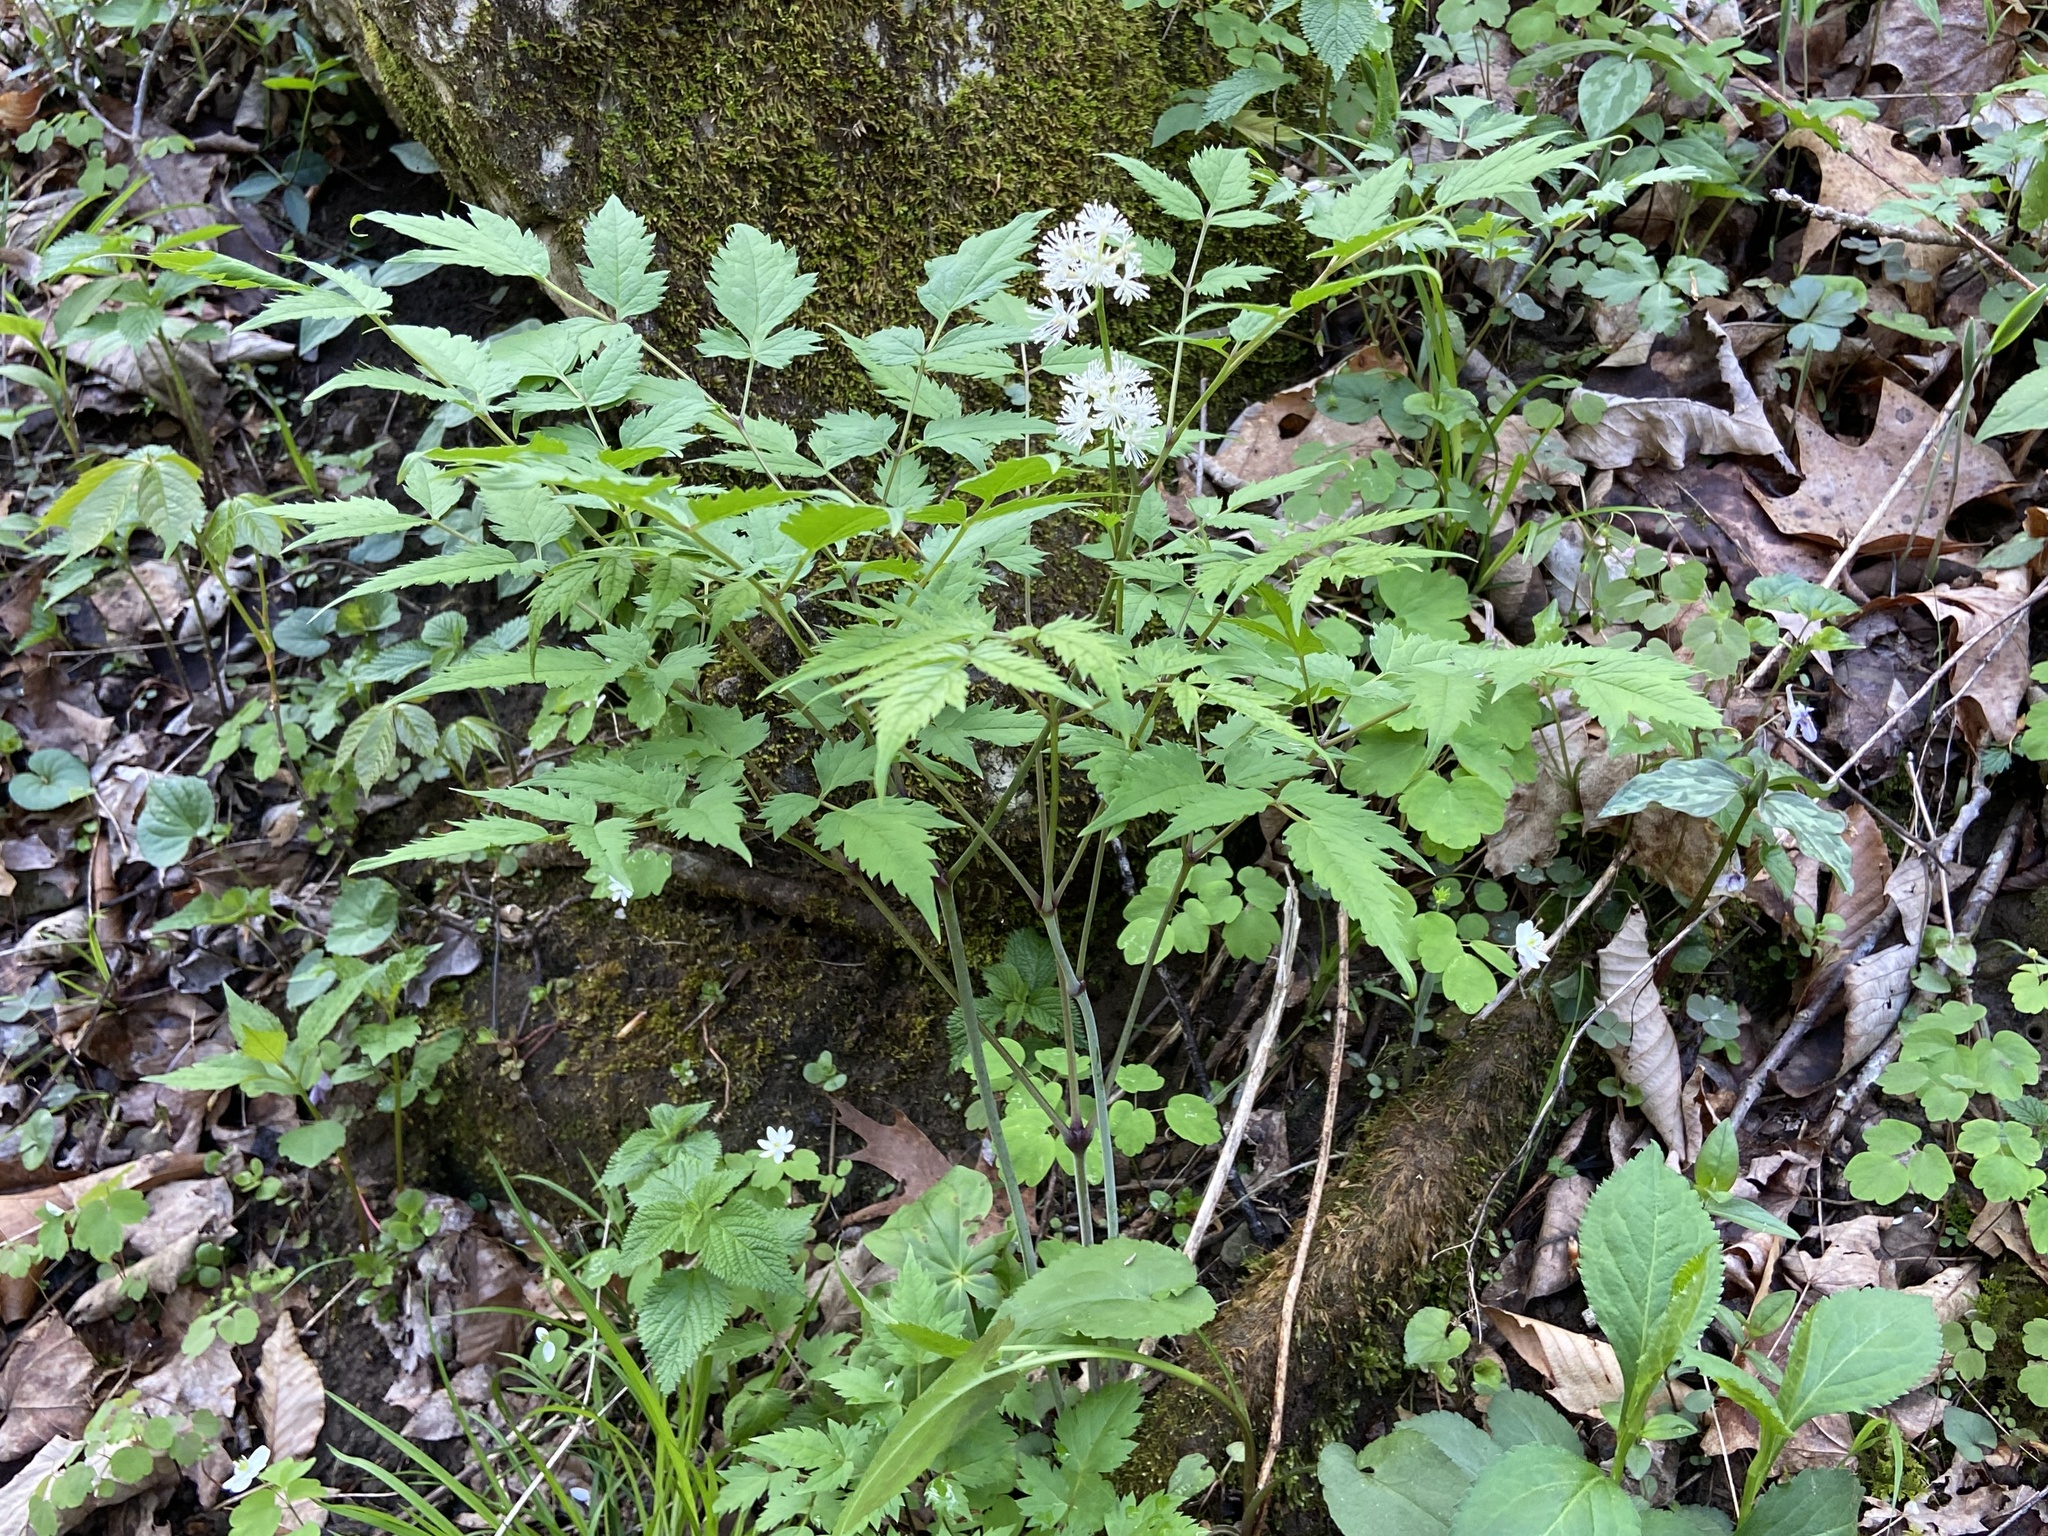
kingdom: Plantae
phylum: Tracheophyta
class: Magnoliopsida
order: Ranunculales
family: Ranunculaceae
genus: Actaea
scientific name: Actaea pachypoda
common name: Doll's-eyes
